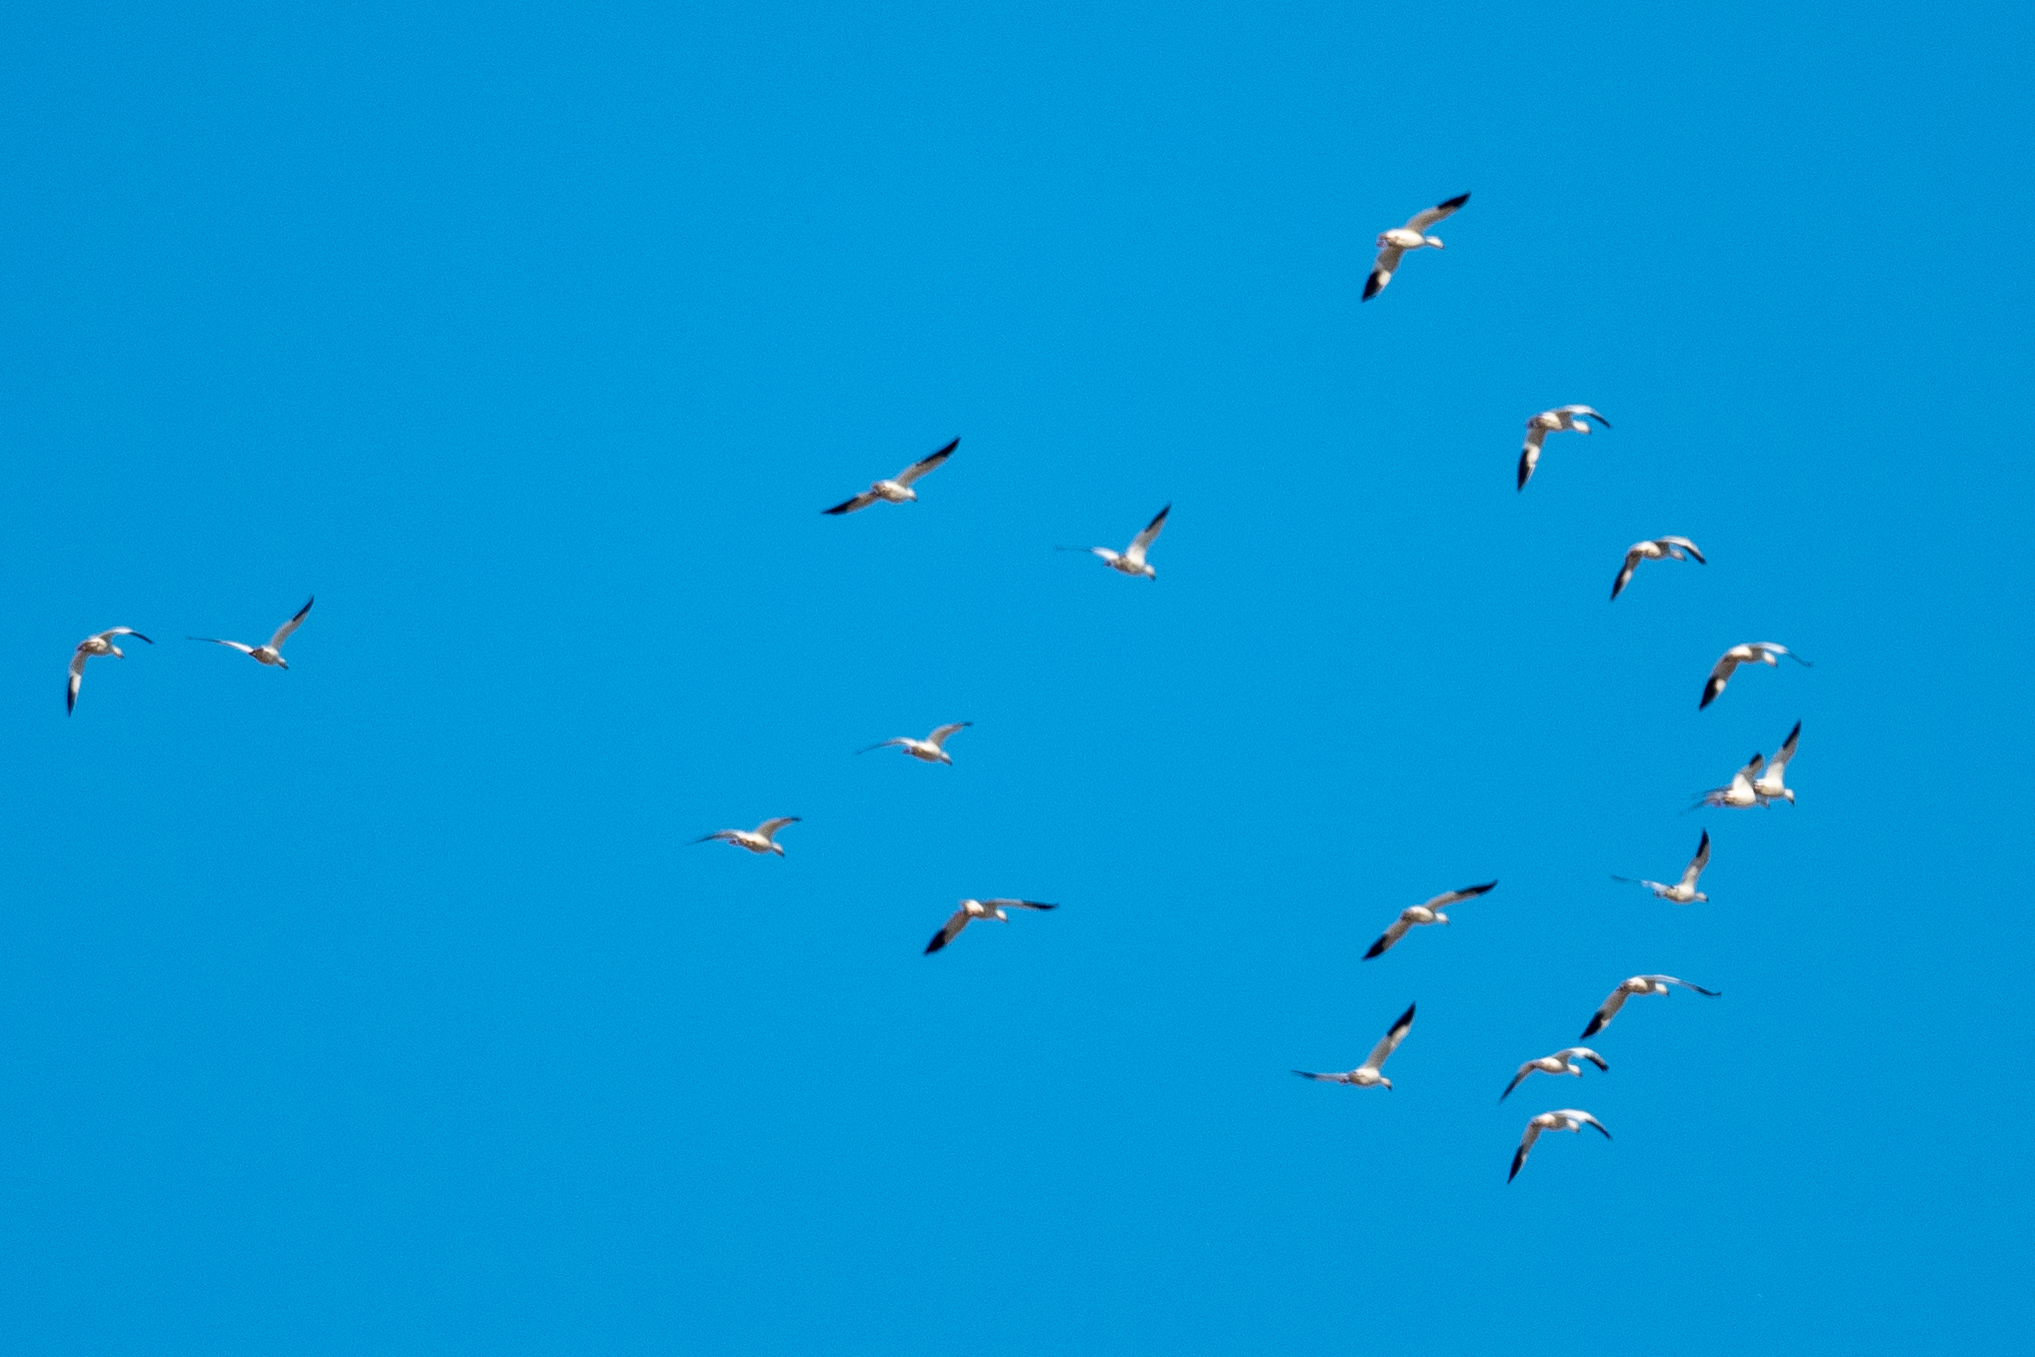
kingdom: Animalia
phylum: Chordata
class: Aves
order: Anseriformes
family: Anatidae
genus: Anser
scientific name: Anser caerulescens
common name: Snow goose
